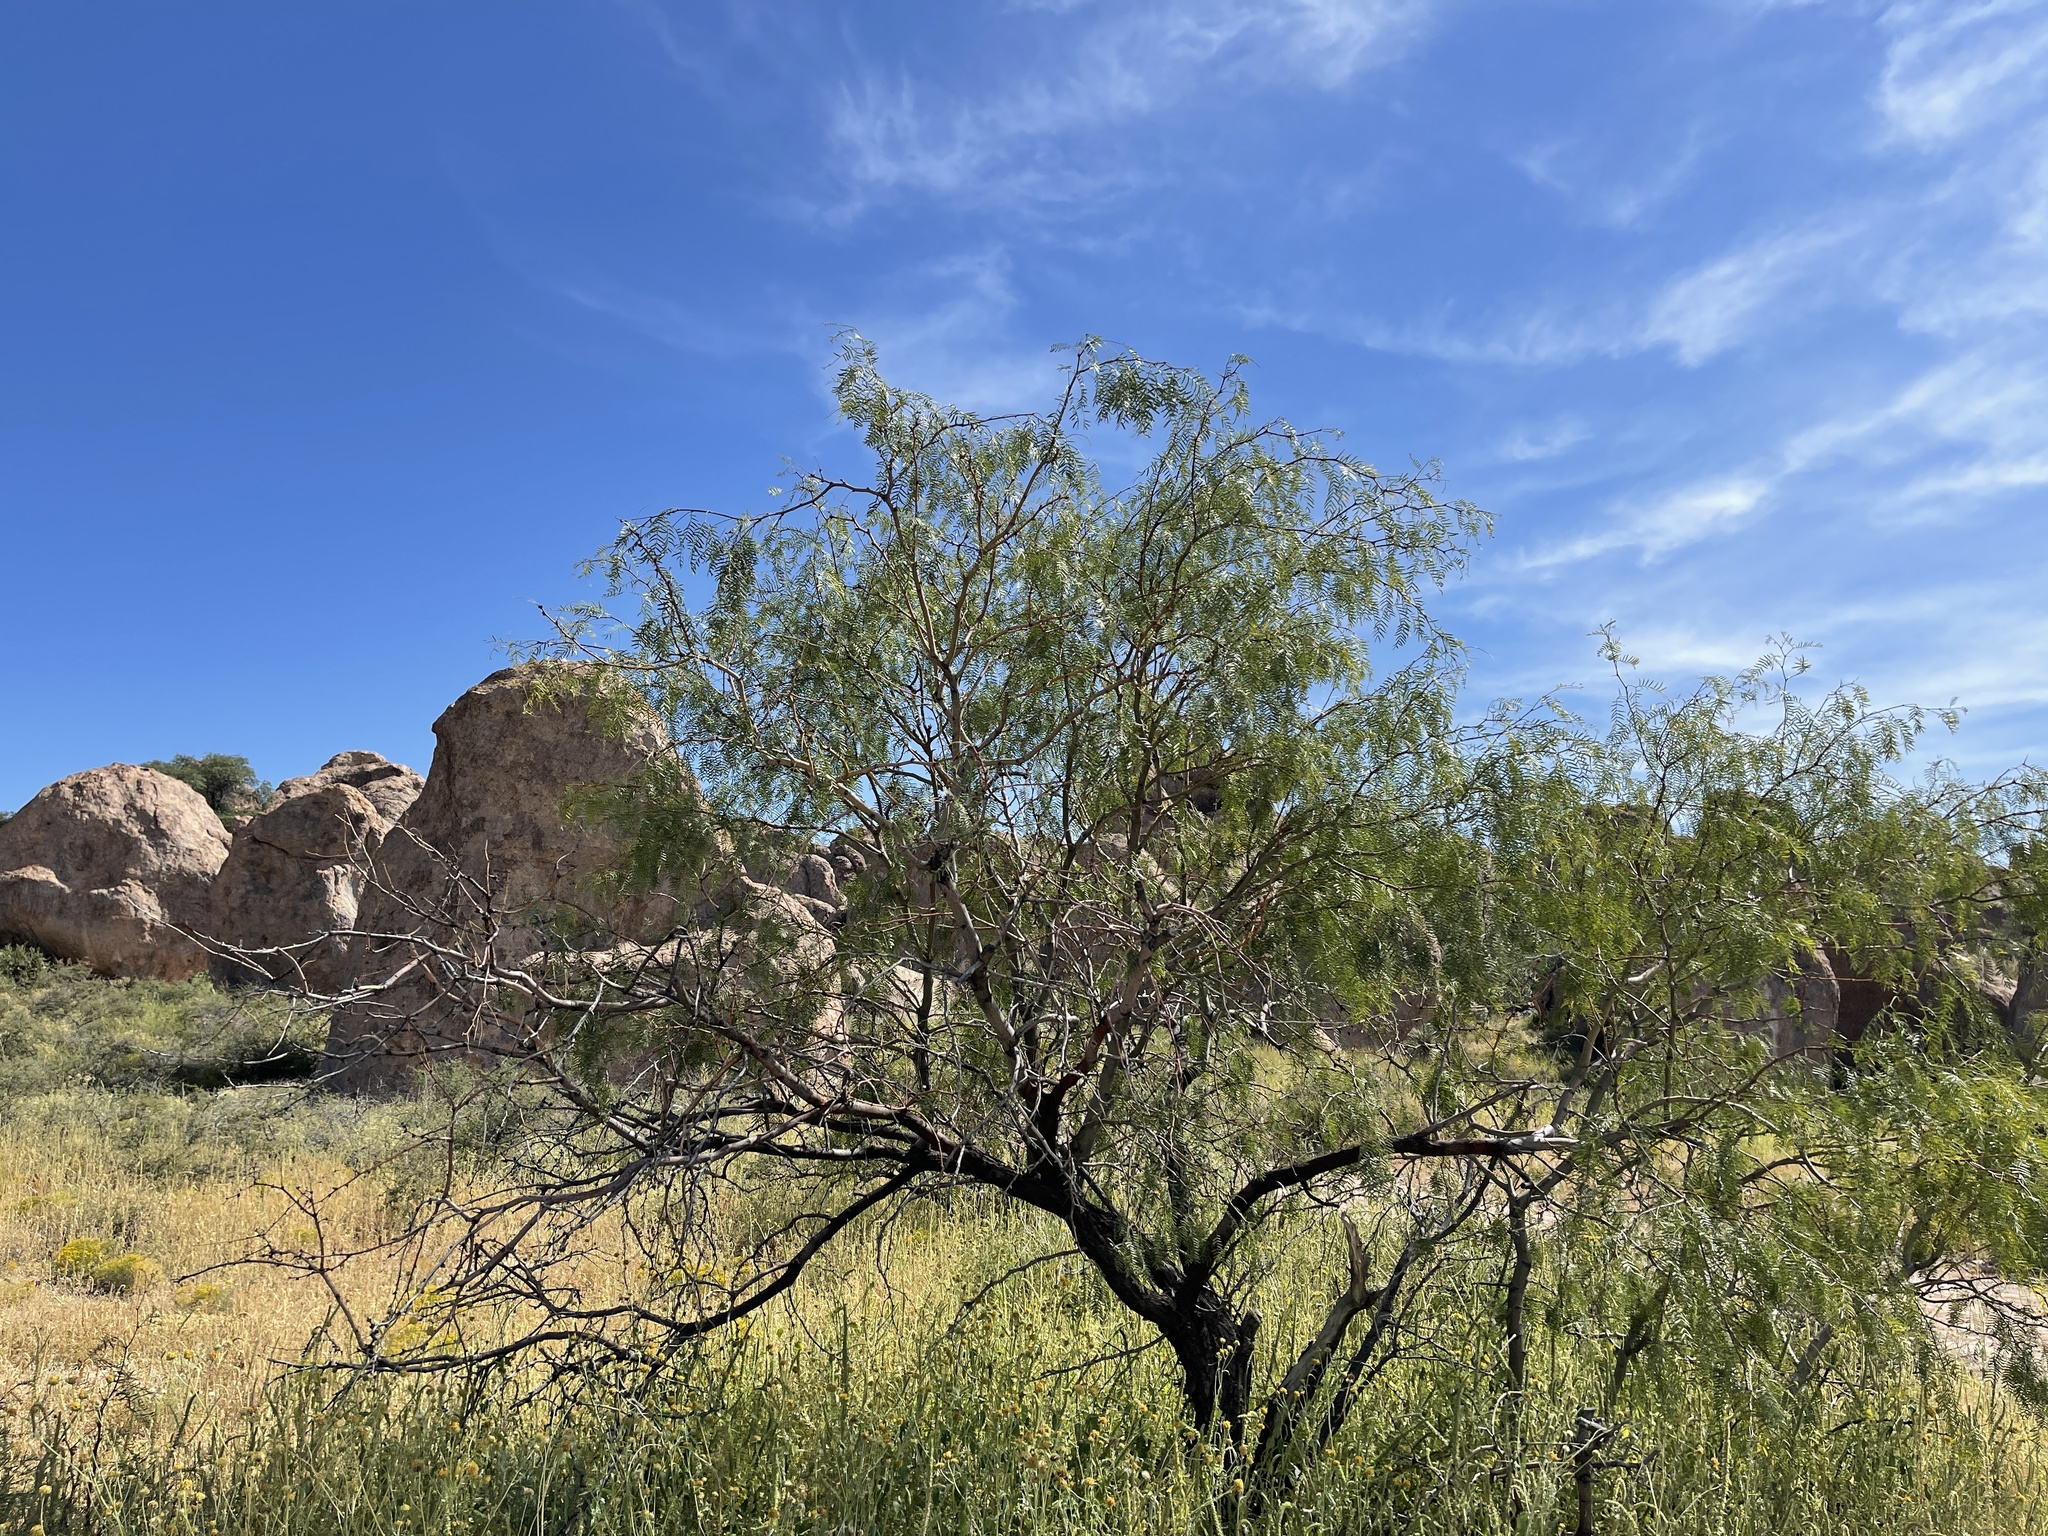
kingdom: Plantae
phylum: Tracheophyta
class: Magnoliopsida
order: Fabales
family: Fabaceae
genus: Prosopis
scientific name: Prosopis glandulosa
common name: Honey mesquite
